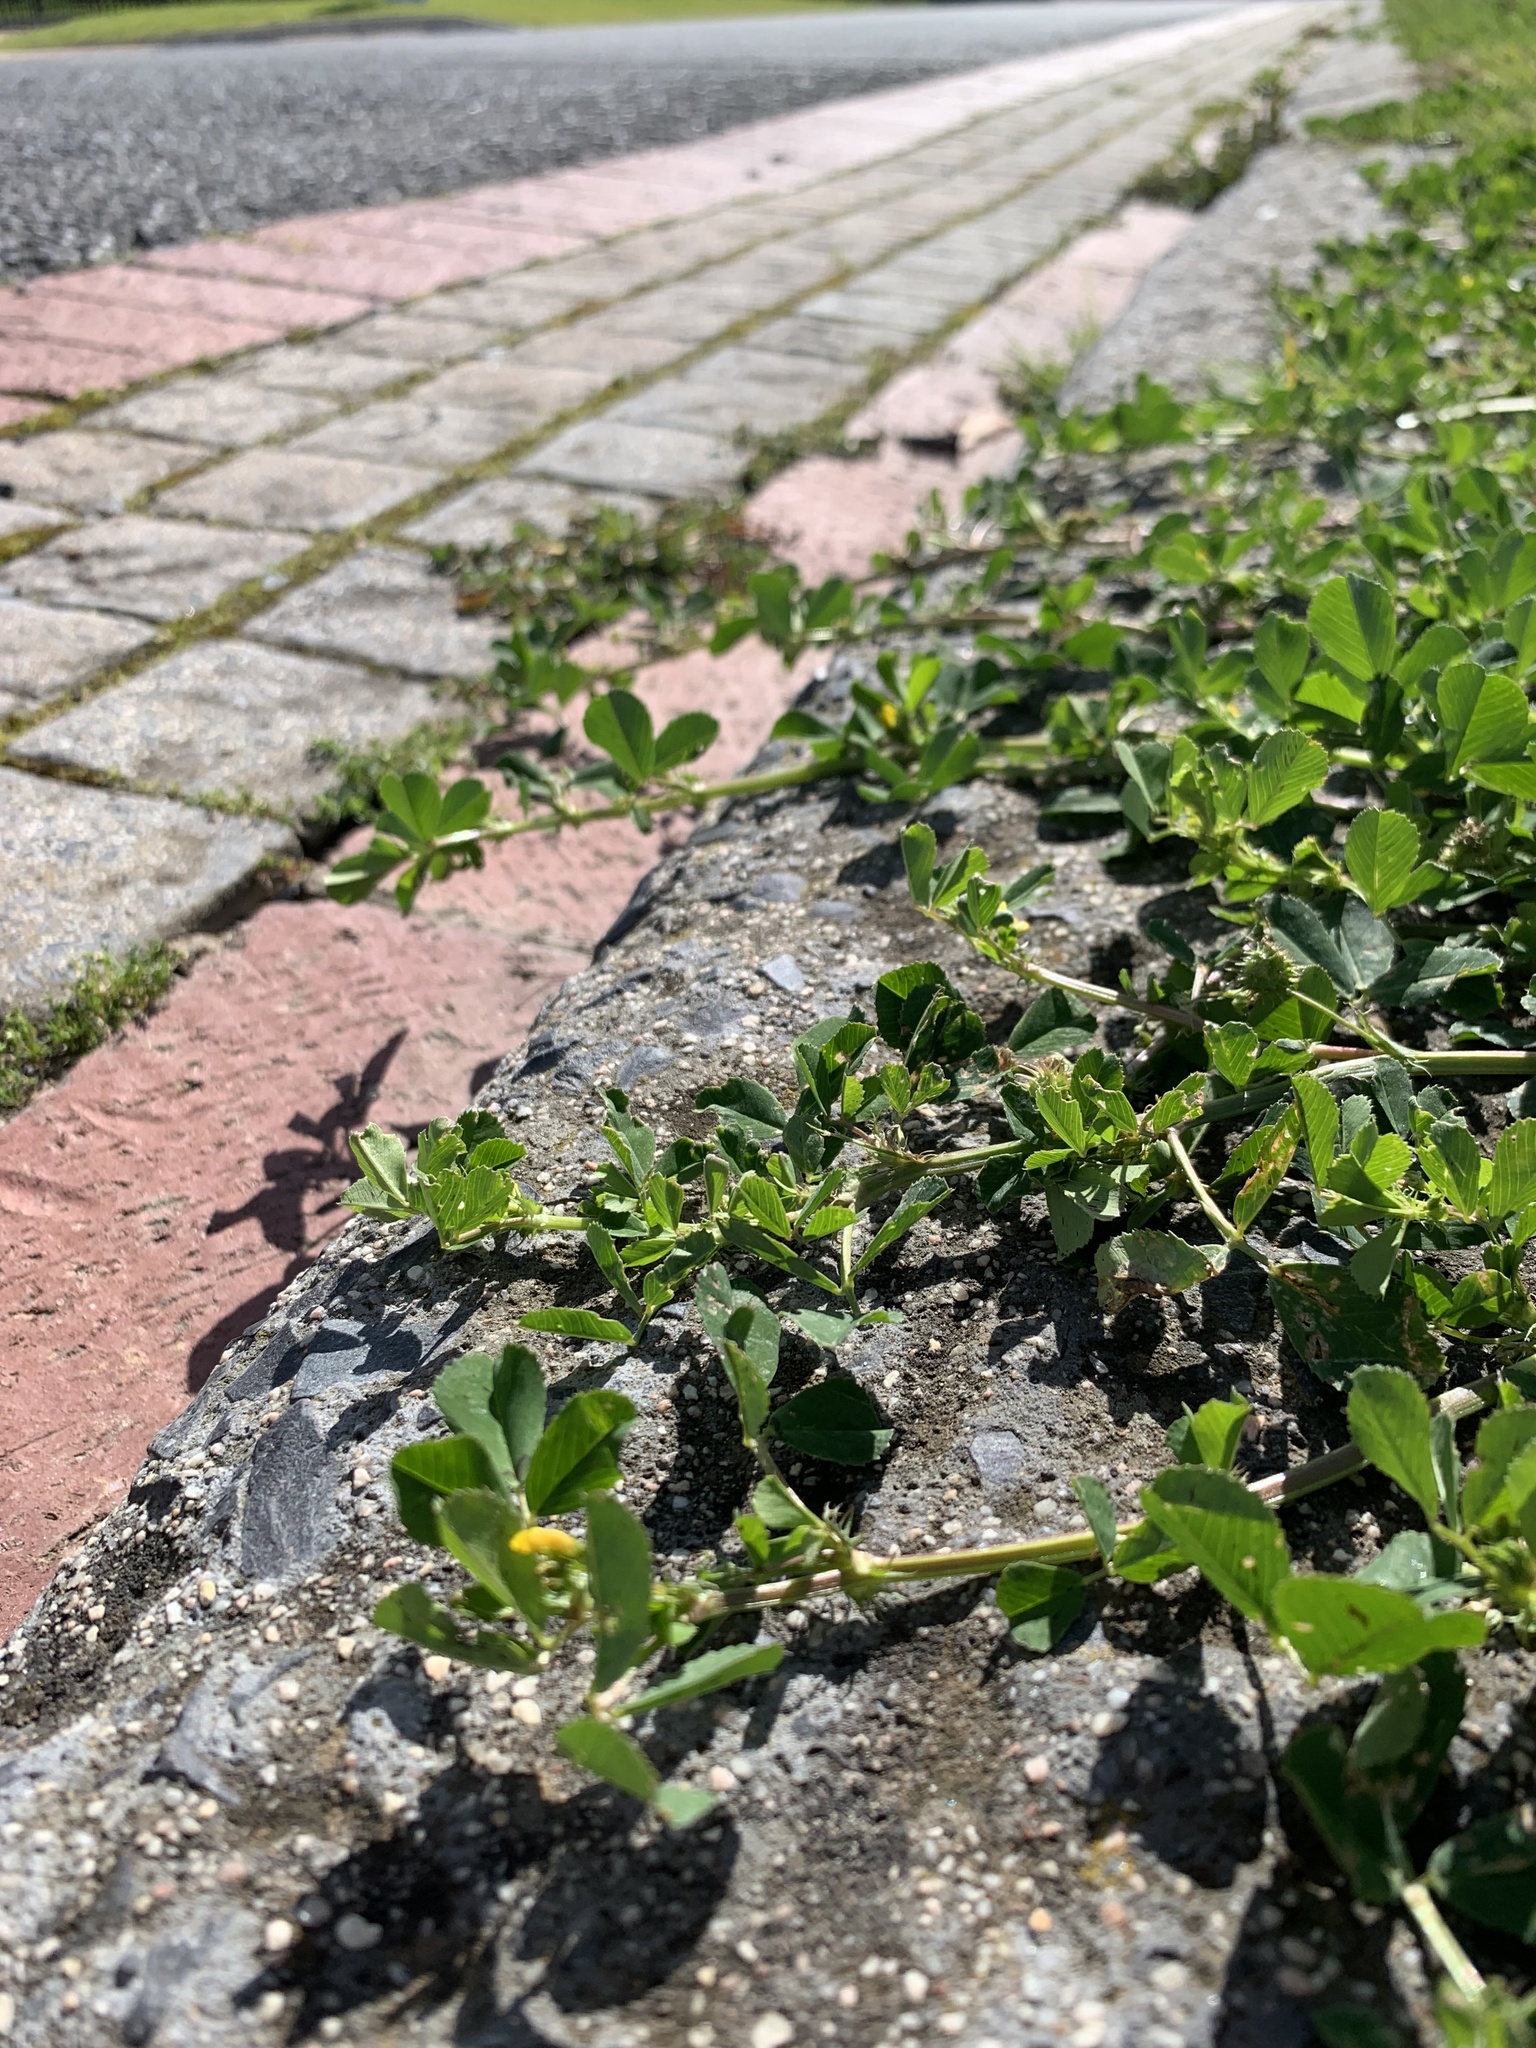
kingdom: Plantae
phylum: Tracheophyta
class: Magnoliopsida
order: Fabales
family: Fabaceae
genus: Medicago
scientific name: Medicago polymorpha
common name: Burclover
